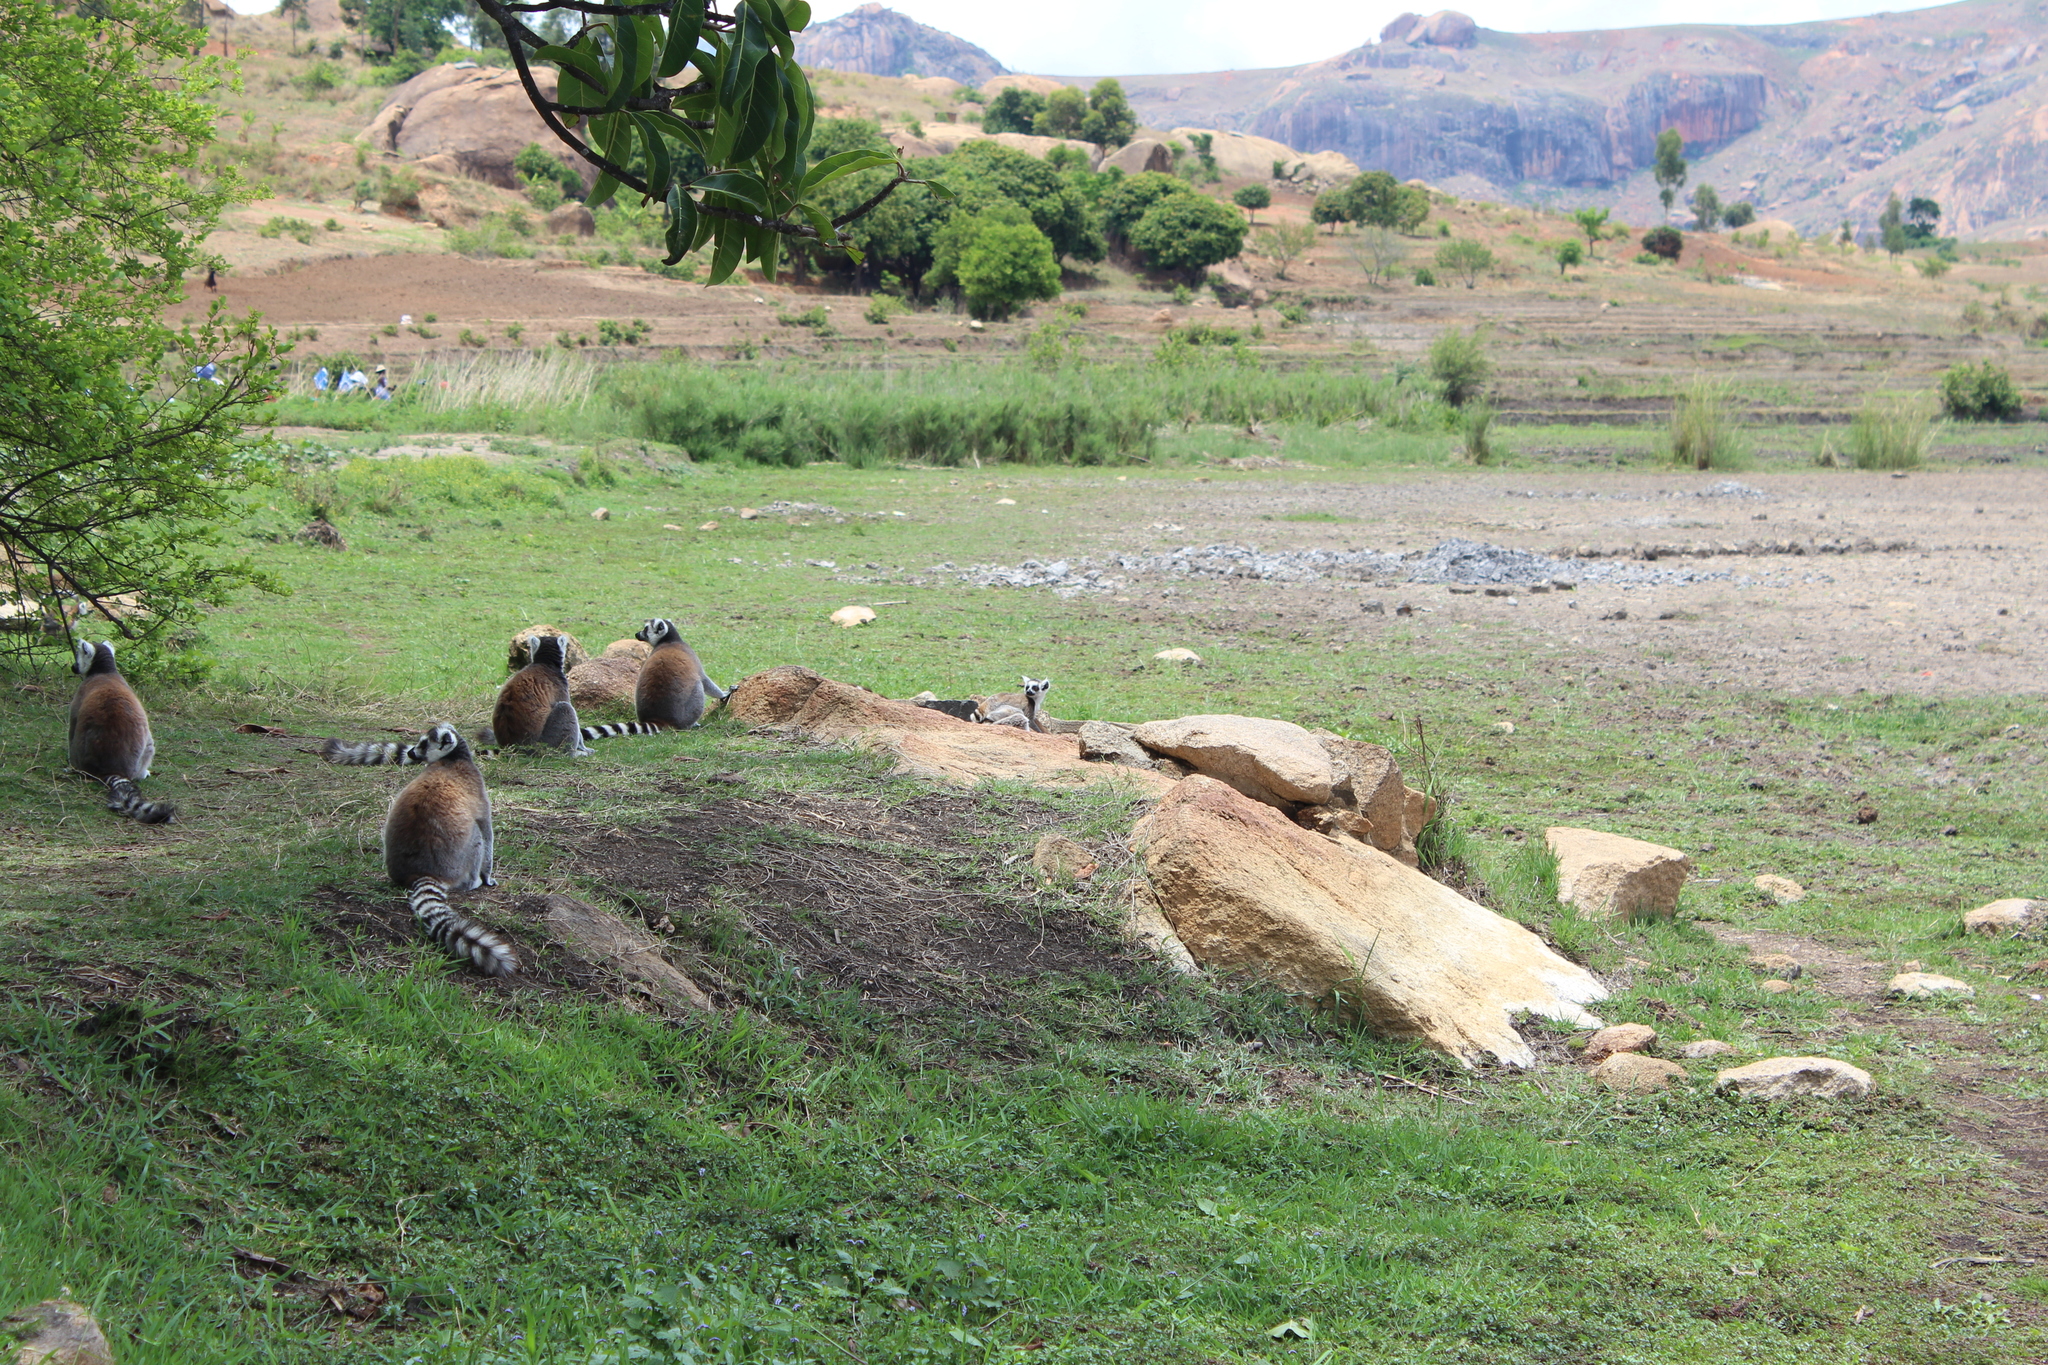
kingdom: Animalia
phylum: Chordata
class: Mammalia
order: Primates
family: Lemuridae
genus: Lemur
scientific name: Lemur catta
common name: Ring-tailed lemur
